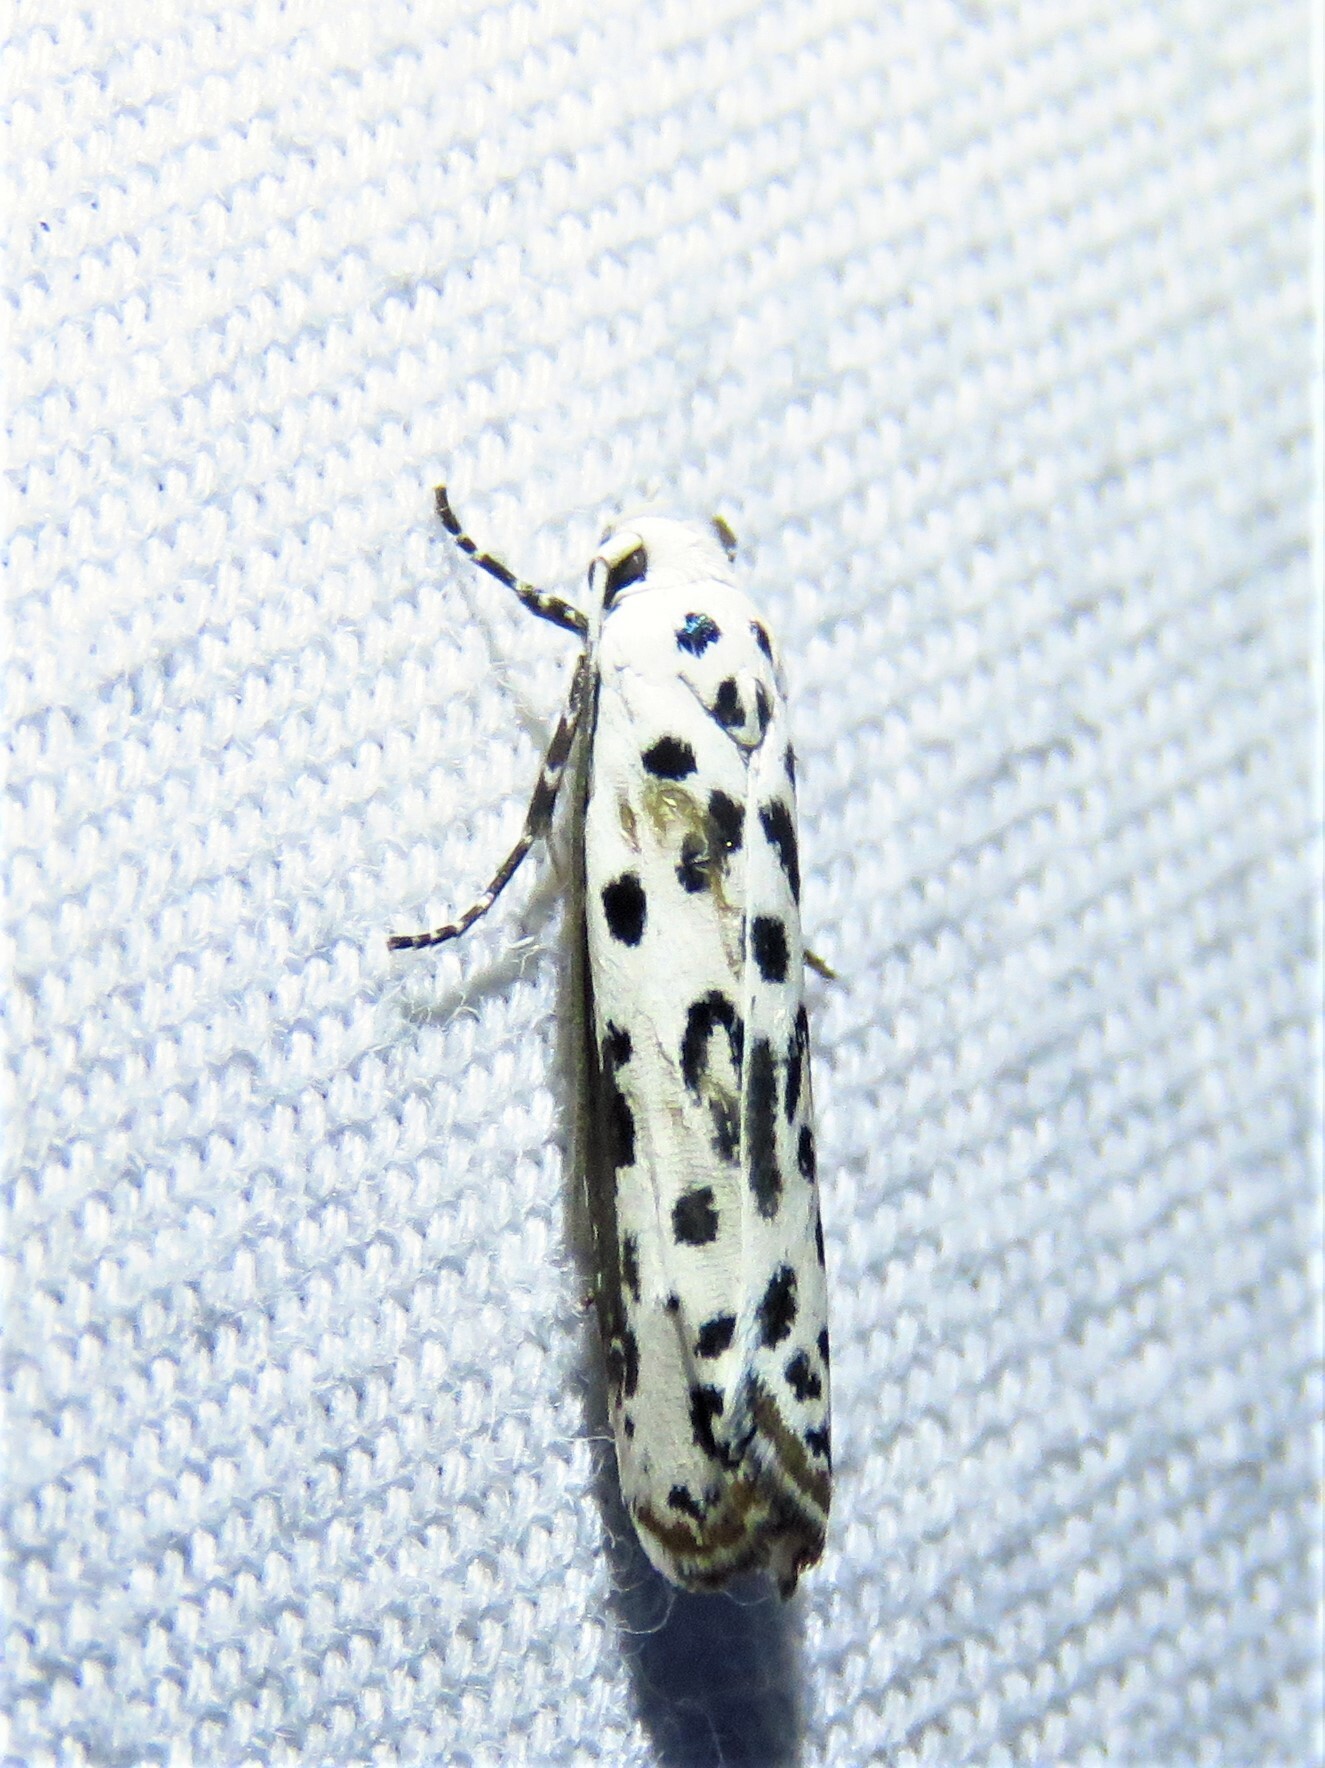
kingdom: Animalia
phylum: Arthropoda
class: Insecta
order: Lepidoptera
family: Ethmiidae
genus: Ethmia
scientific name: Ethmia bittenella
